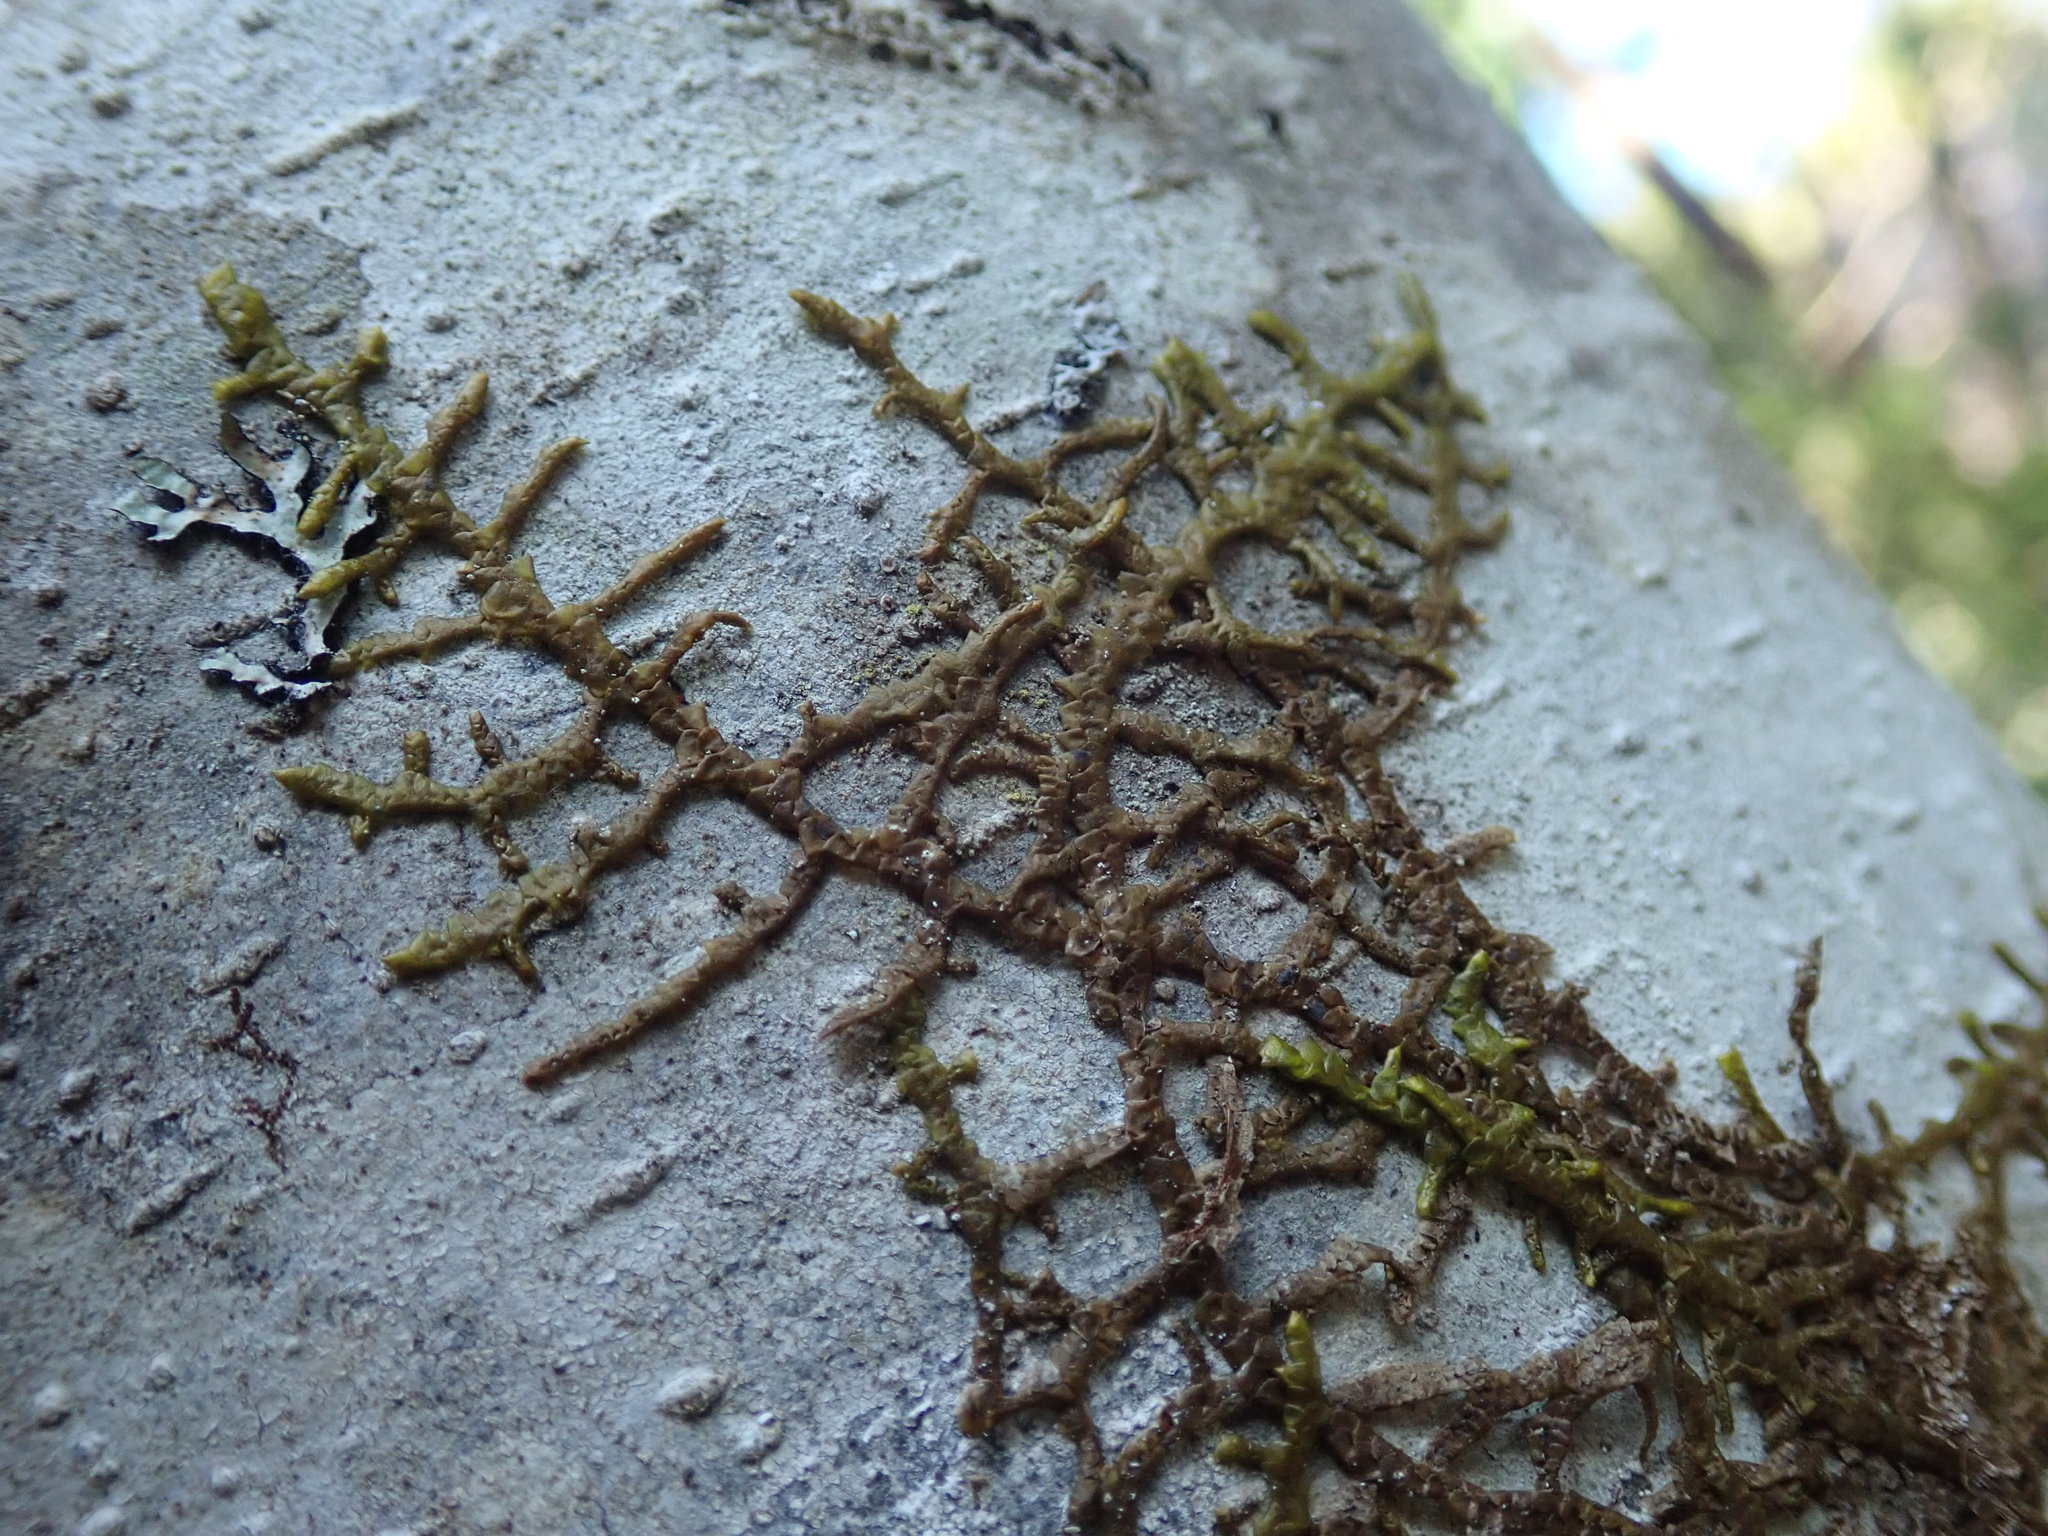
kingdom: Plantae
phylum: Marchantiophyta
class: Jungermanniopsida
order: Porellales
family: Porellaceae
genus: Porella
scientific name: Porella navicularis
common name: Tree ruffle liverwort
